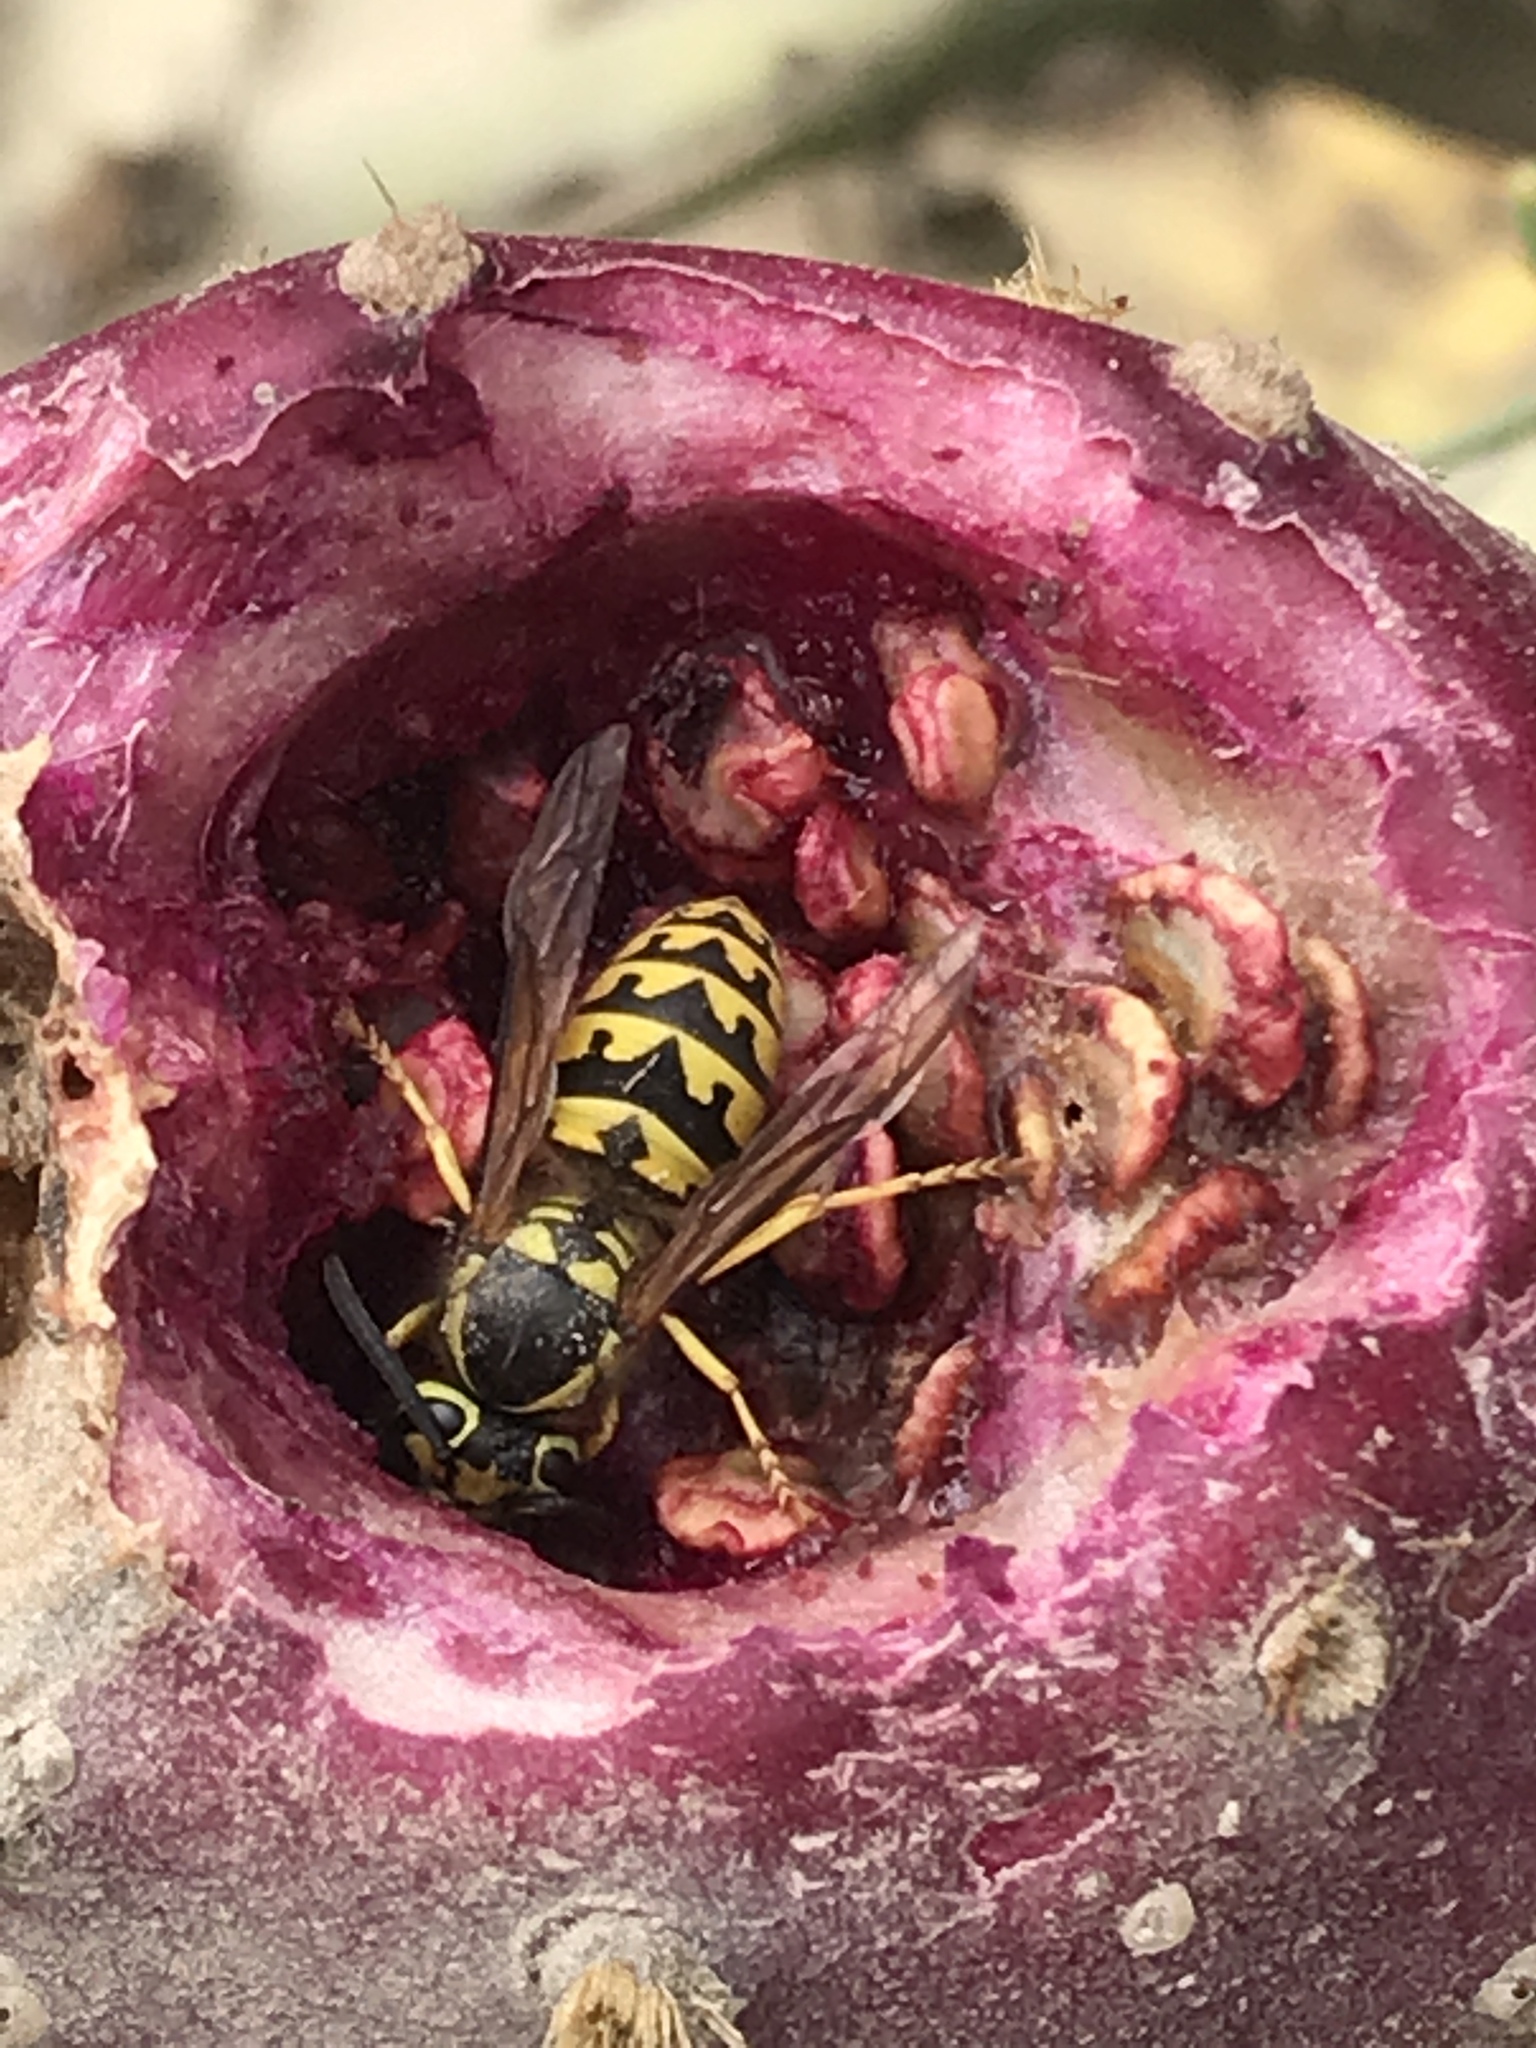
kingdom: Animalia
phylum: Arthropoda
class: Insecta
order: Hymenoptera
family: Vespidae
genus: Vespula
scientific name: Vespula pensylvanica
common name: Western yellowjacket
